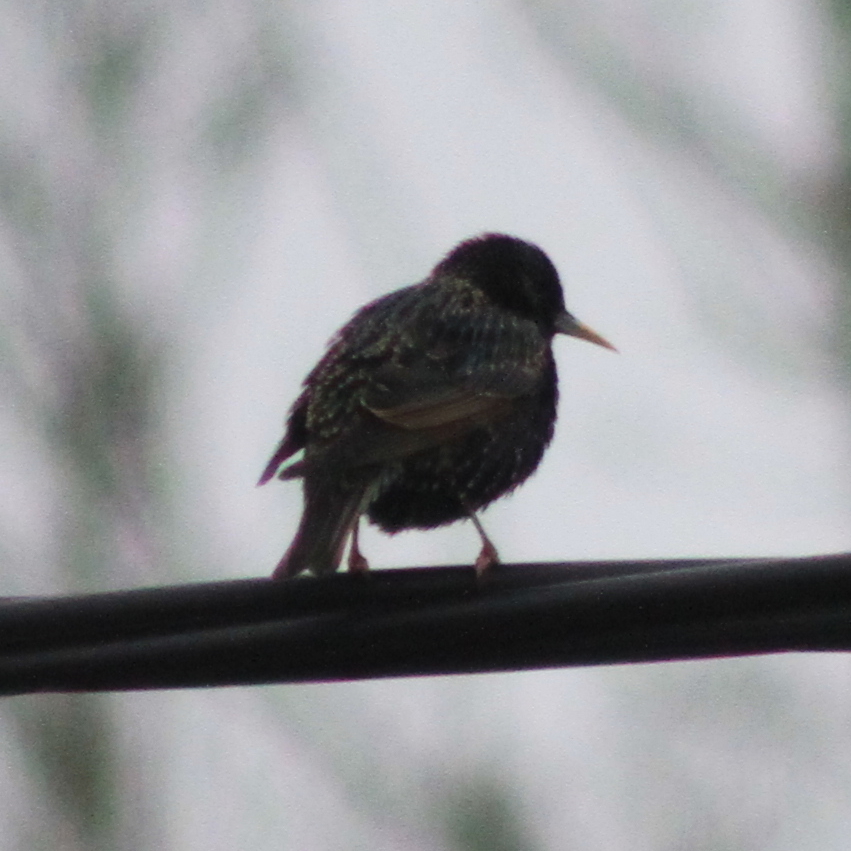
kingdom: Animalia
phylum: Chordata
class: Aves
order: Passeriformes
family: Sturnidae
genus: Sturnus
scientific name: Sturnus vulgaris
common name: Common starling
